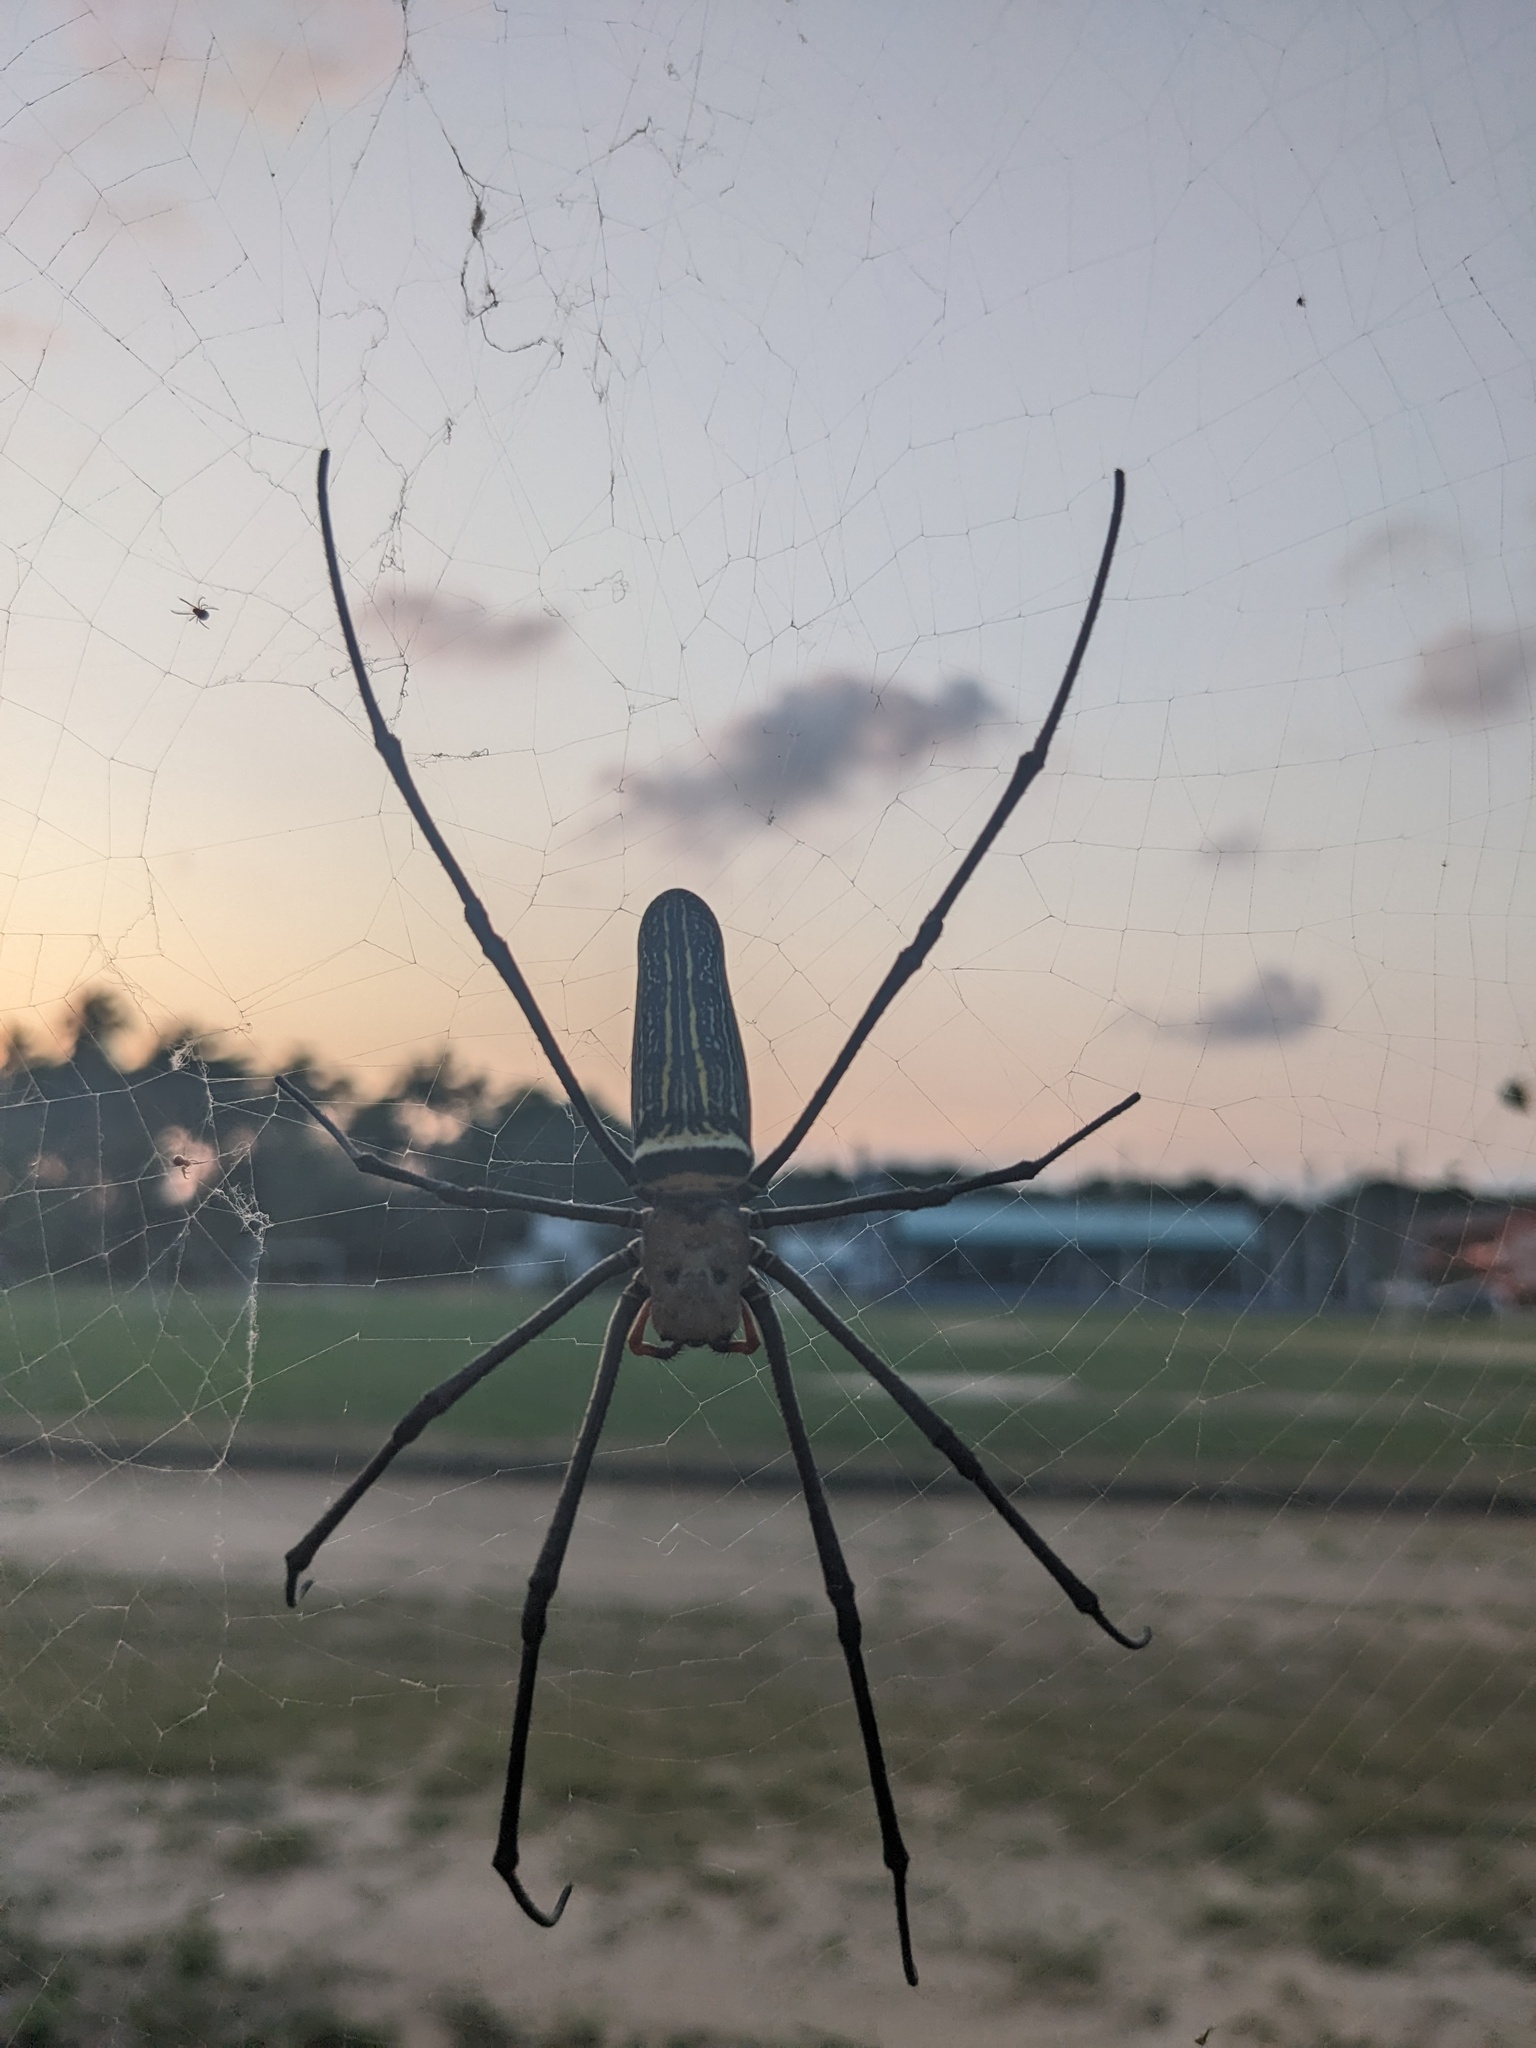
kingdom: Animalia
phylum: Arthropoda
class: Arachnida
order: Araneae
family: Araneidae
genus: Nephila
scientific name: Nephila pilipes
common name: Giant golden orb weaver
